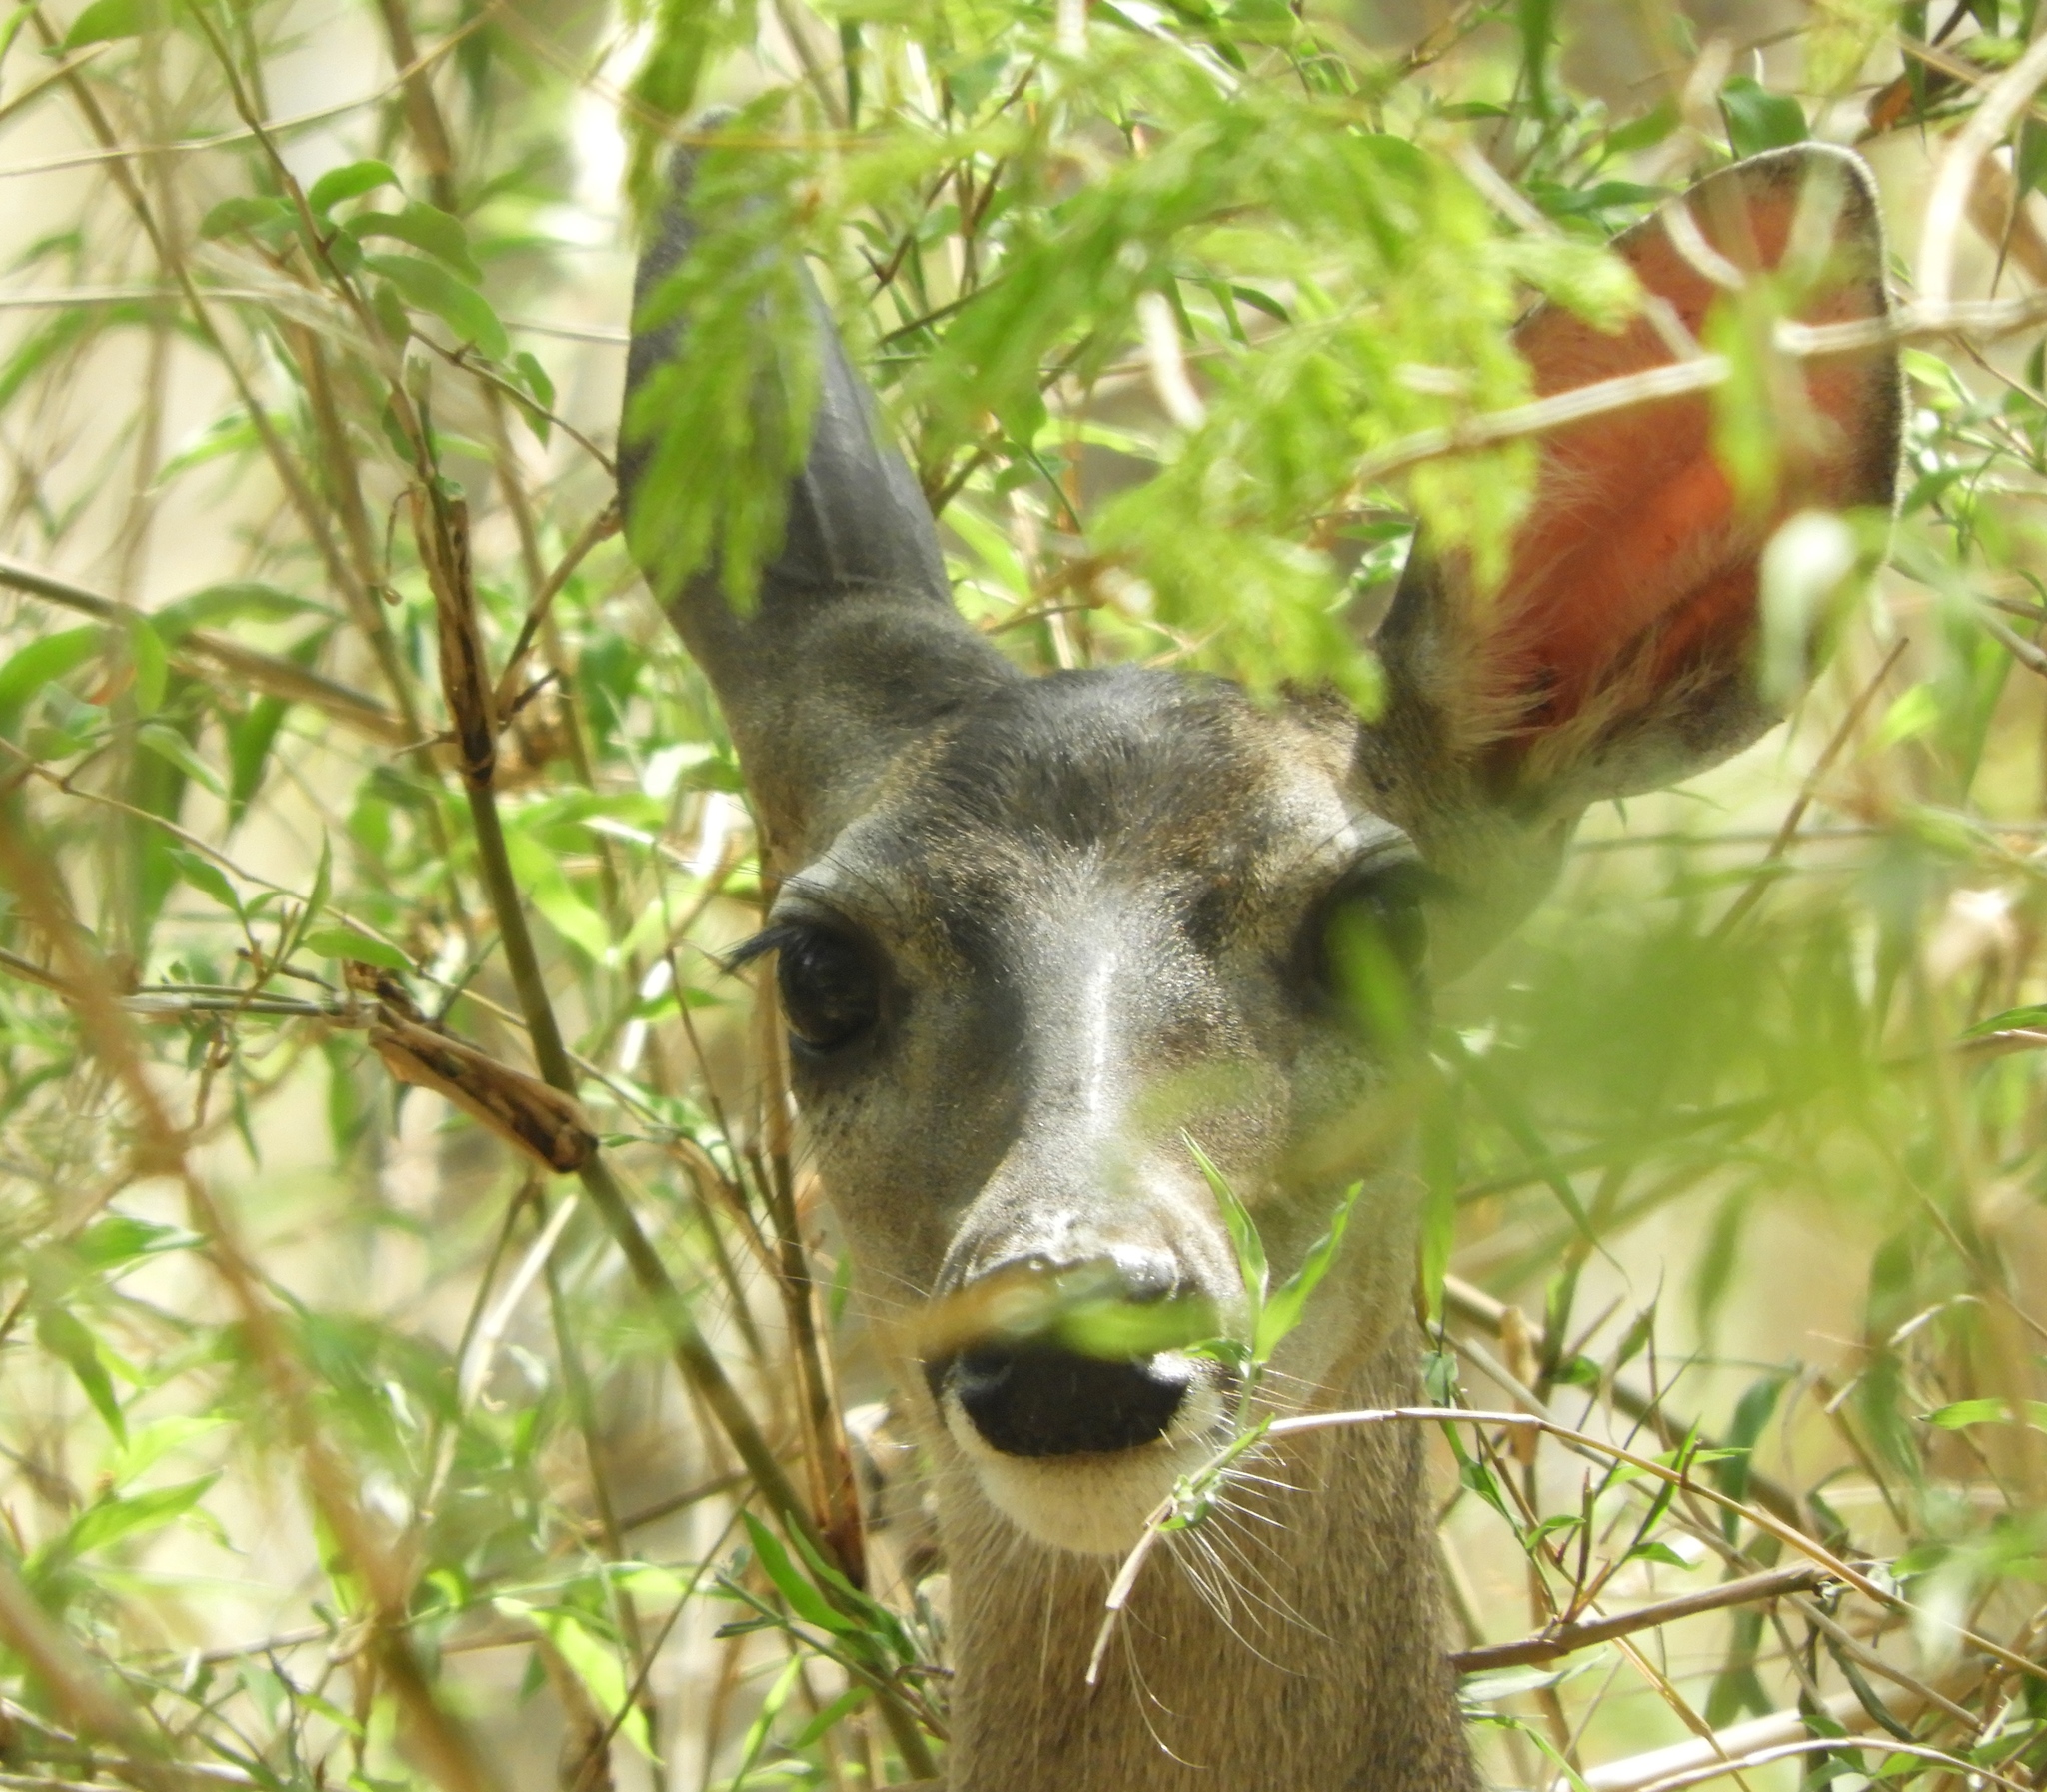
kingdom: Animalia
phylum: Chordata
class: Mammalia
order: Artiodactyla
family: Cervidae
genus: Odocoileus
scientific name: Odocoileus virginianus
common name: White-tailed deer
